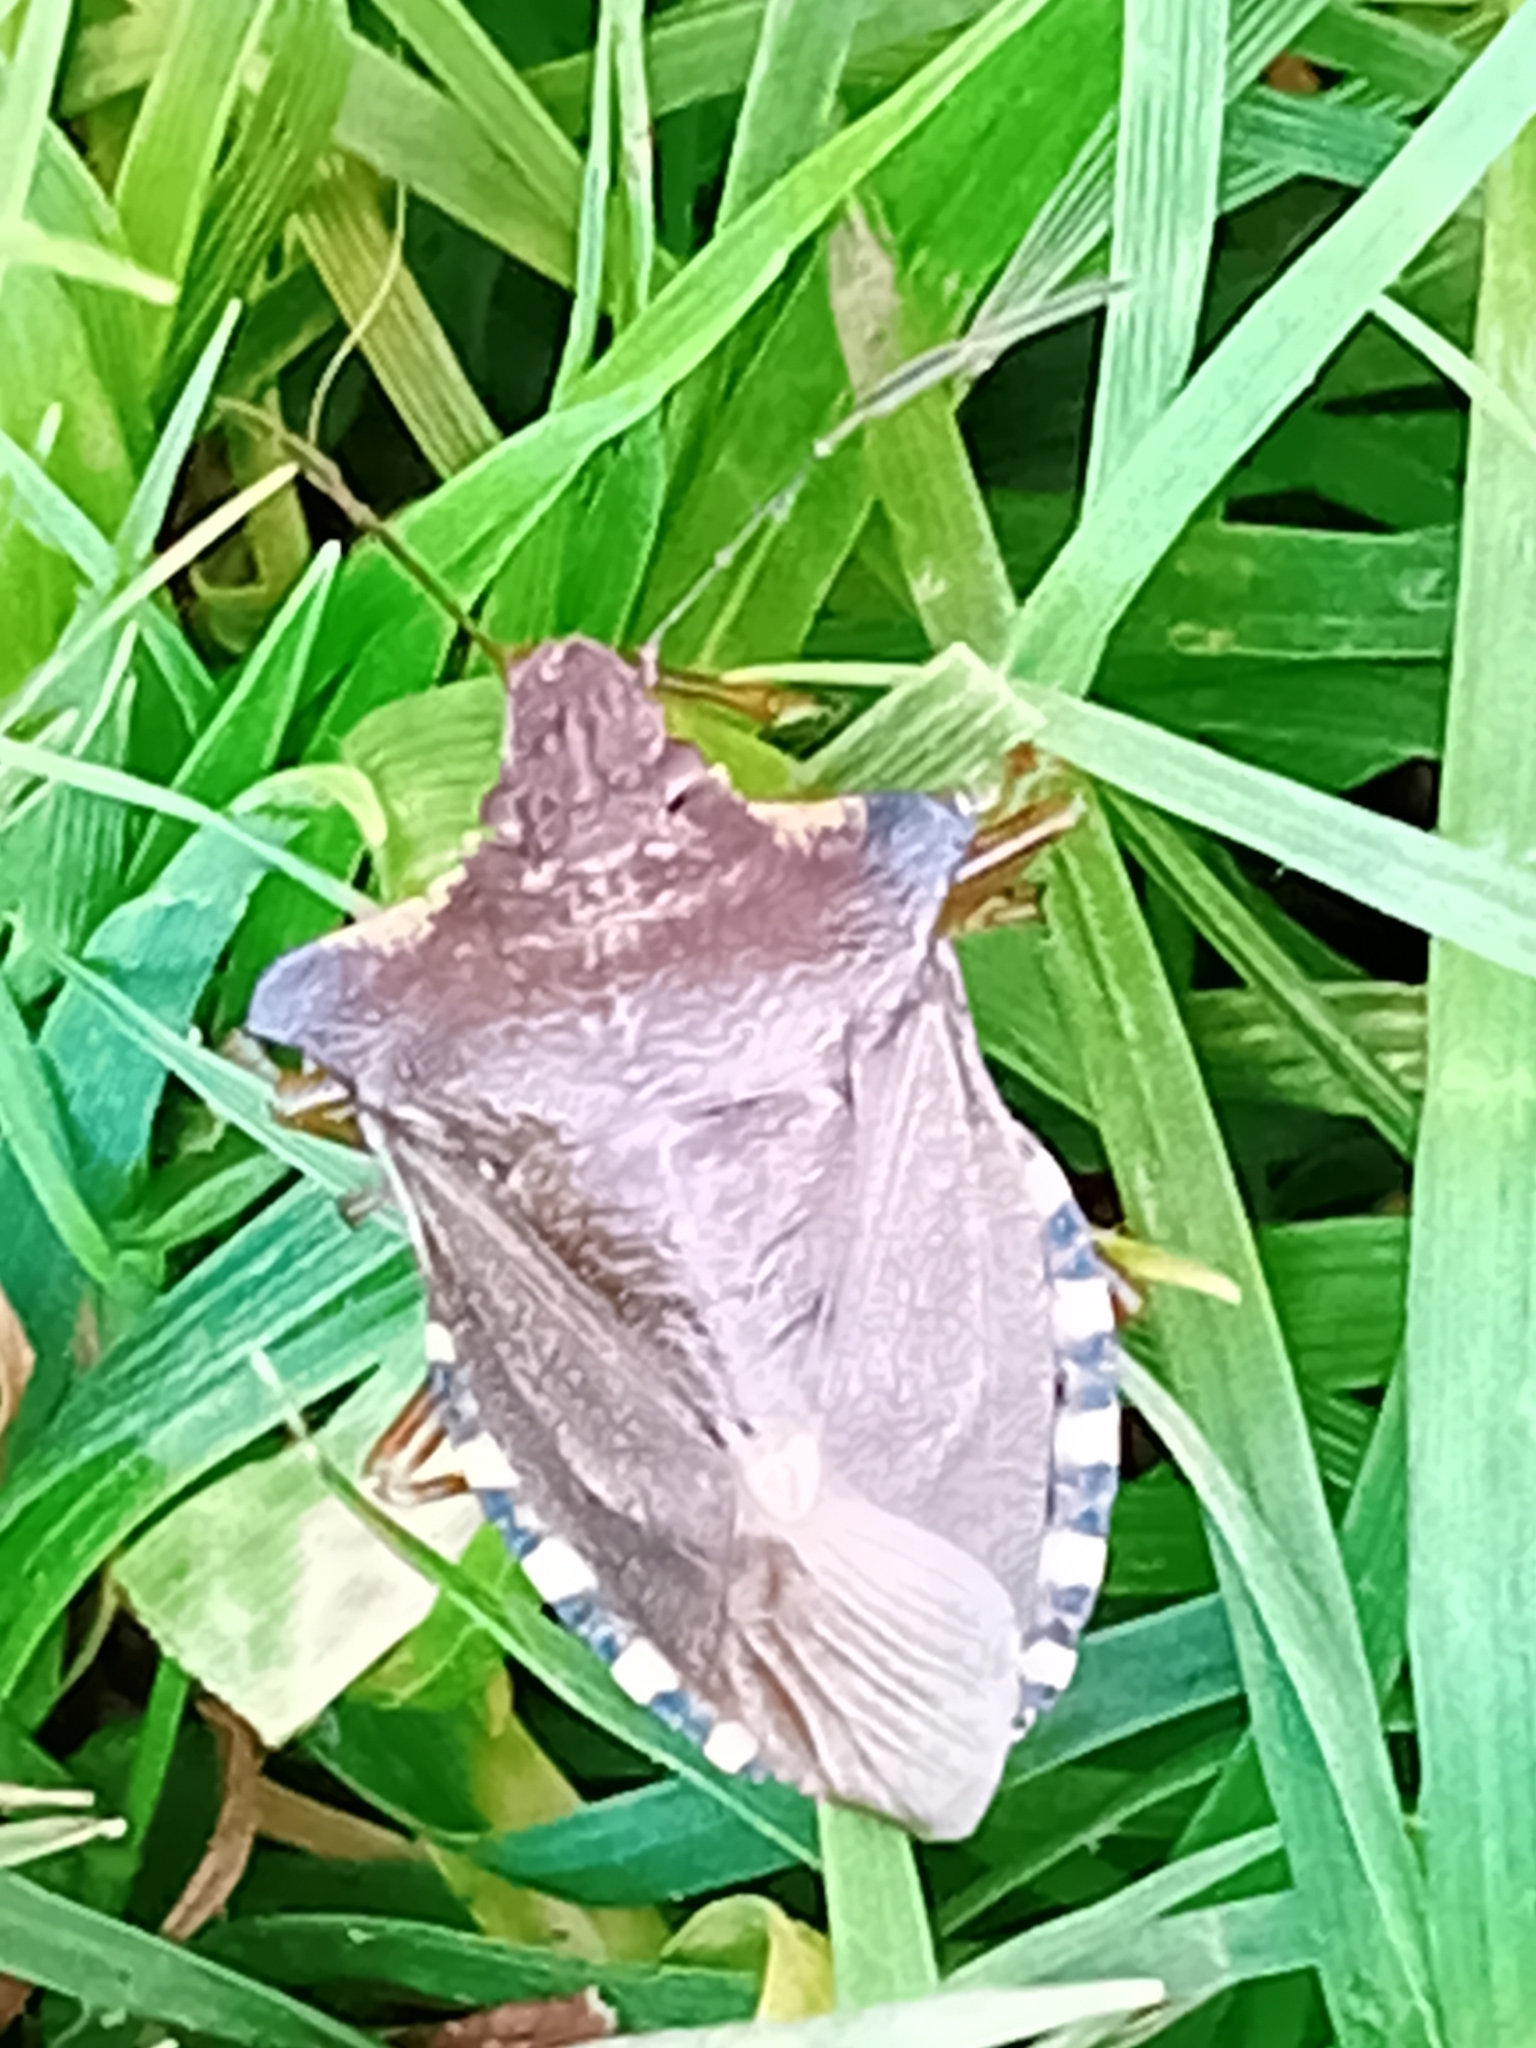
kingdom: Animalia
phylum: Arthropoda
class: Insecta
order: Hemiptera
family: Pentatomidae
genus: Pentatoma
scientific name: Pentatoma rufipes
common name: Forest bug
